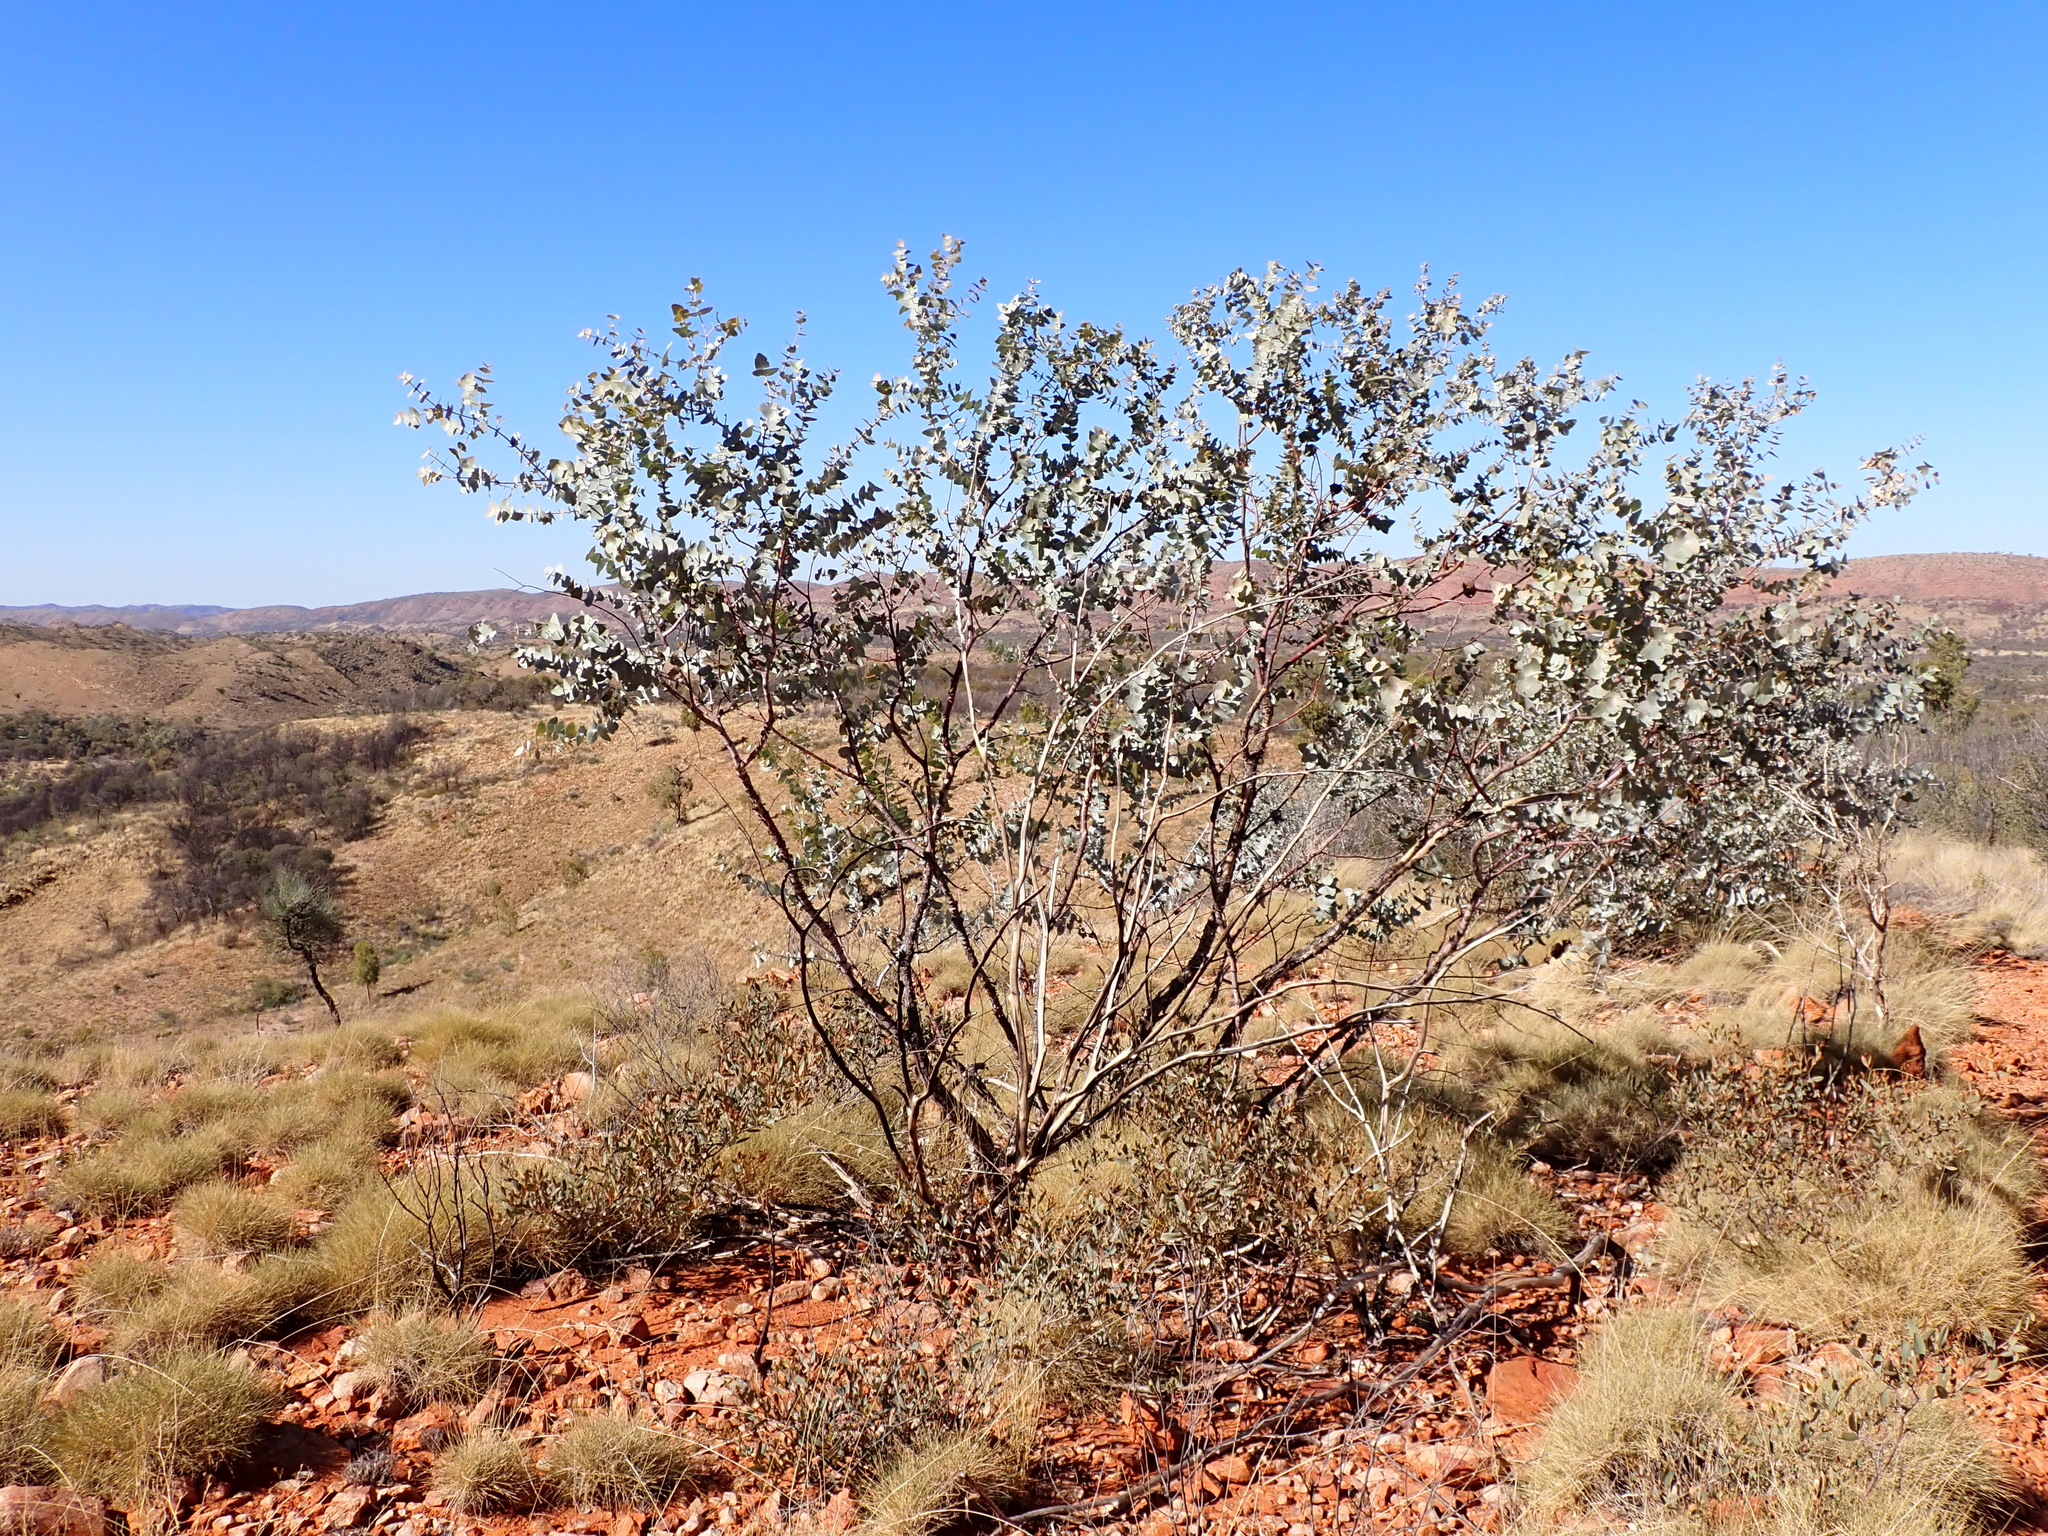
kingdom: Plantae
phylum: Tracheophyta
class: Magnoliopsida
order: Myrtales
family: Myrtaceae
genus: Eucalyptus
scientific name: Eucalyptus gamophylla
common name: Blue mallee
